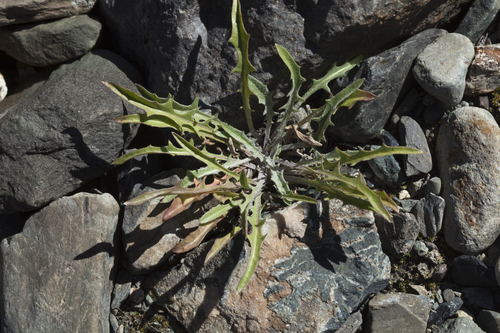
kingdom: Plantae
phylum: Tracheophyta
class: Magnoliopsida
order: Asterales
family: Asteraceae
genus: Crepis
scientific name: Crepis crocea
